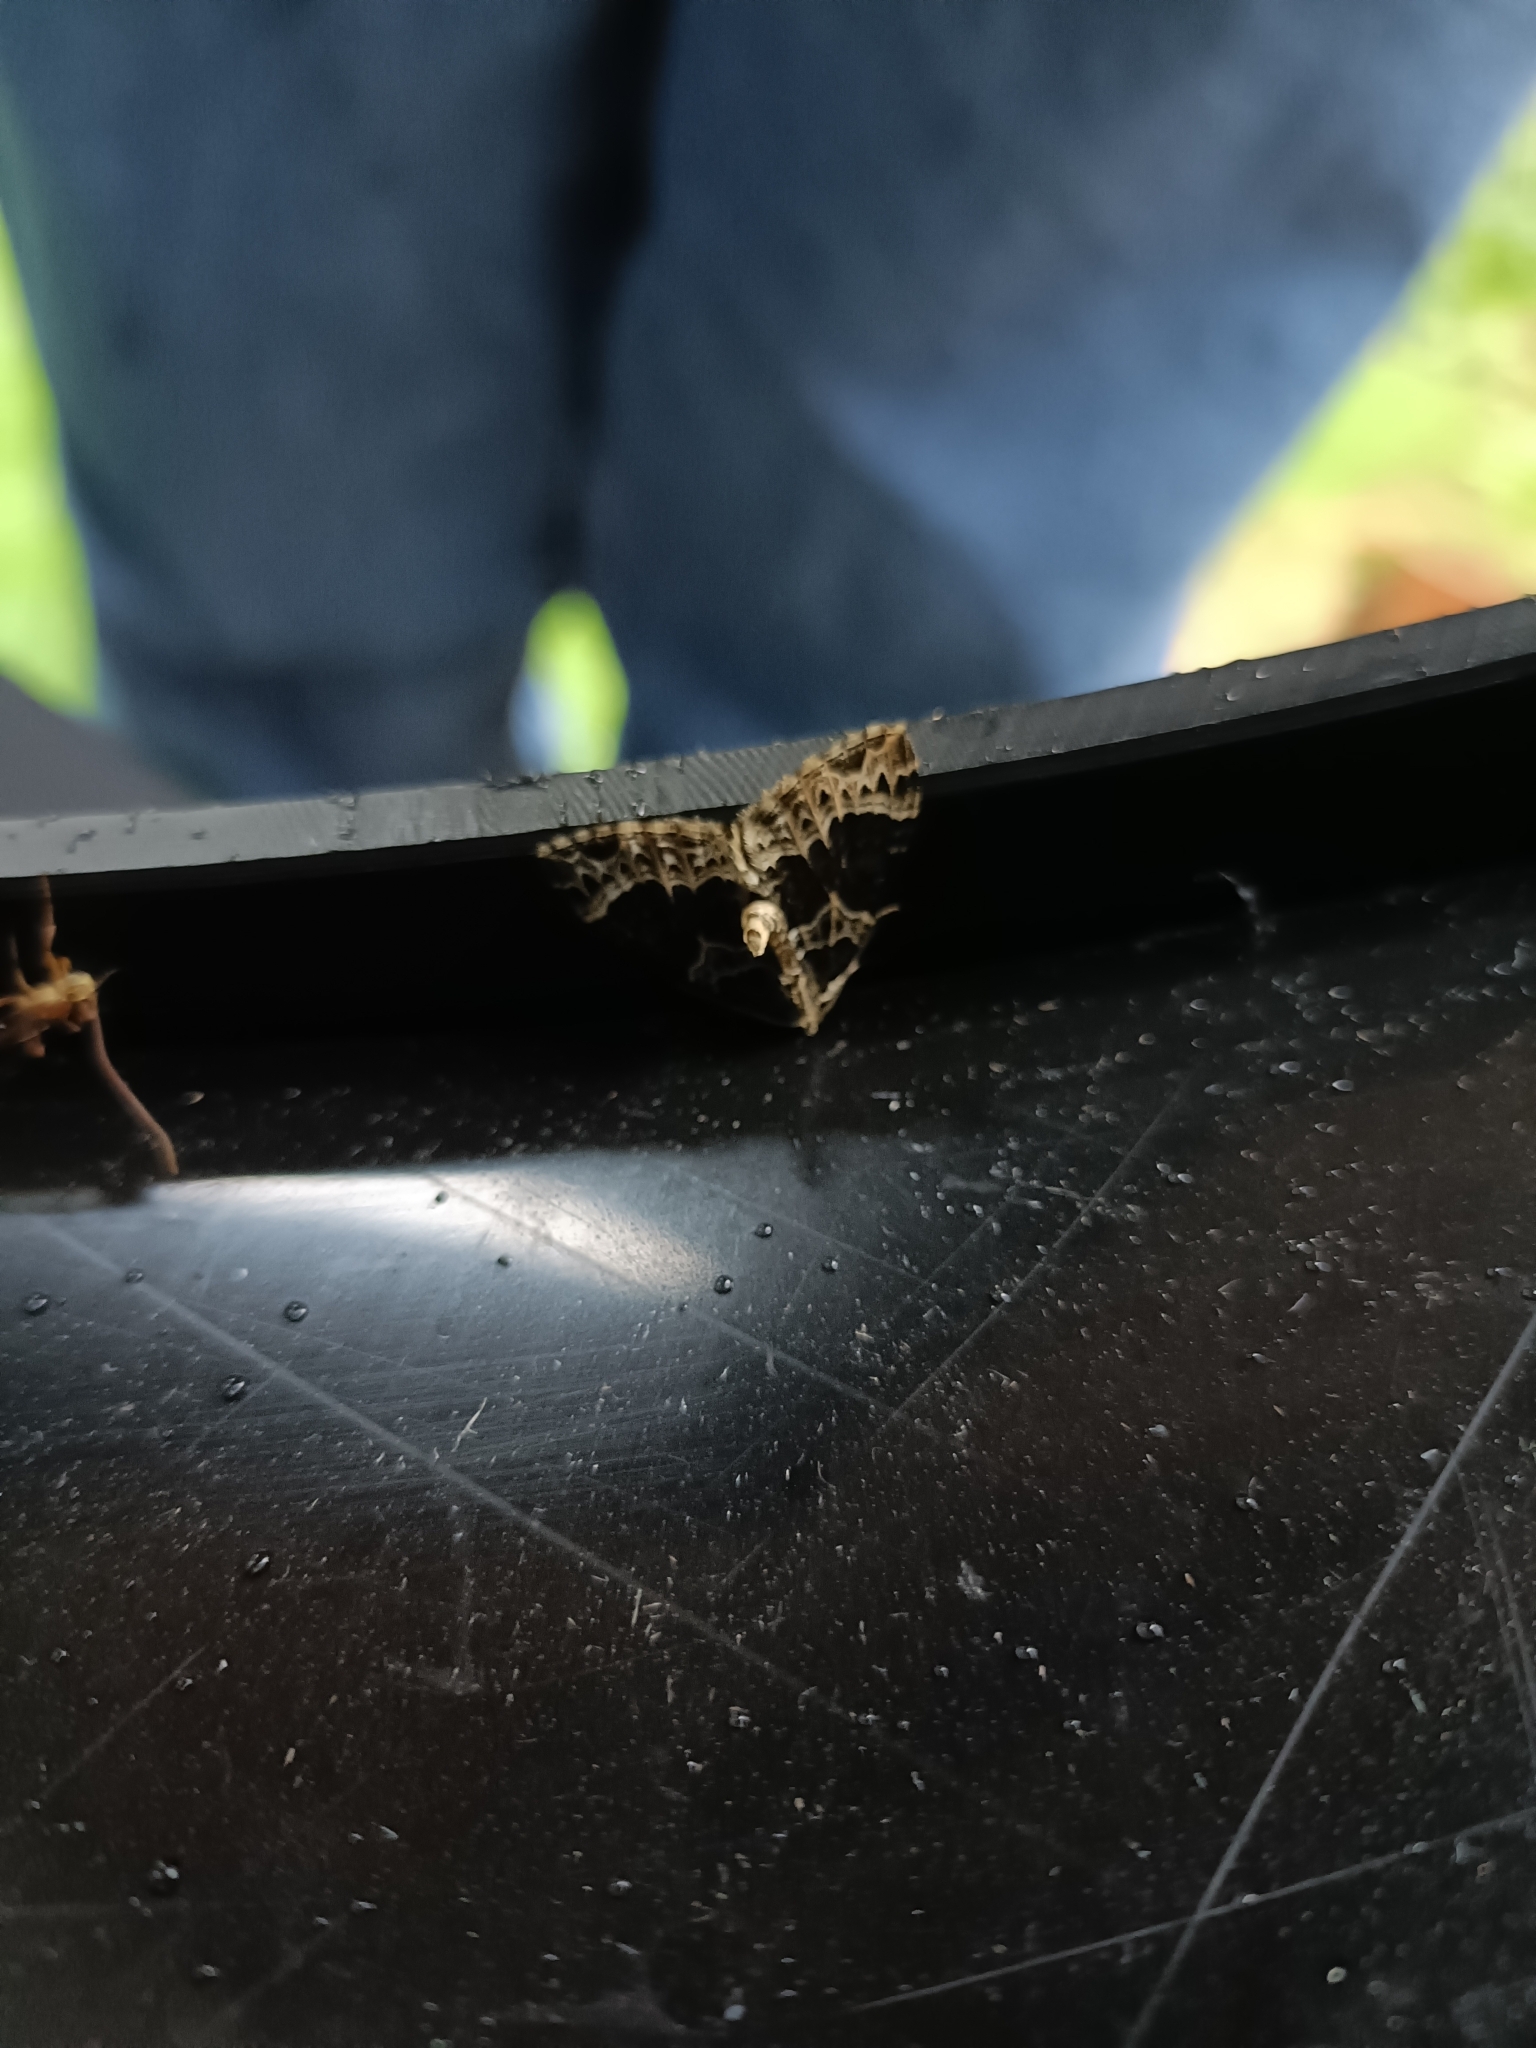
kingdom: Animalia
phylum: Arthropoda
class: Insecta
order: Lepidoptera
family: Geometridae
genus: Ecliptopera
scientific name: Ecliptopera silaceata
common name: Small phoenix
